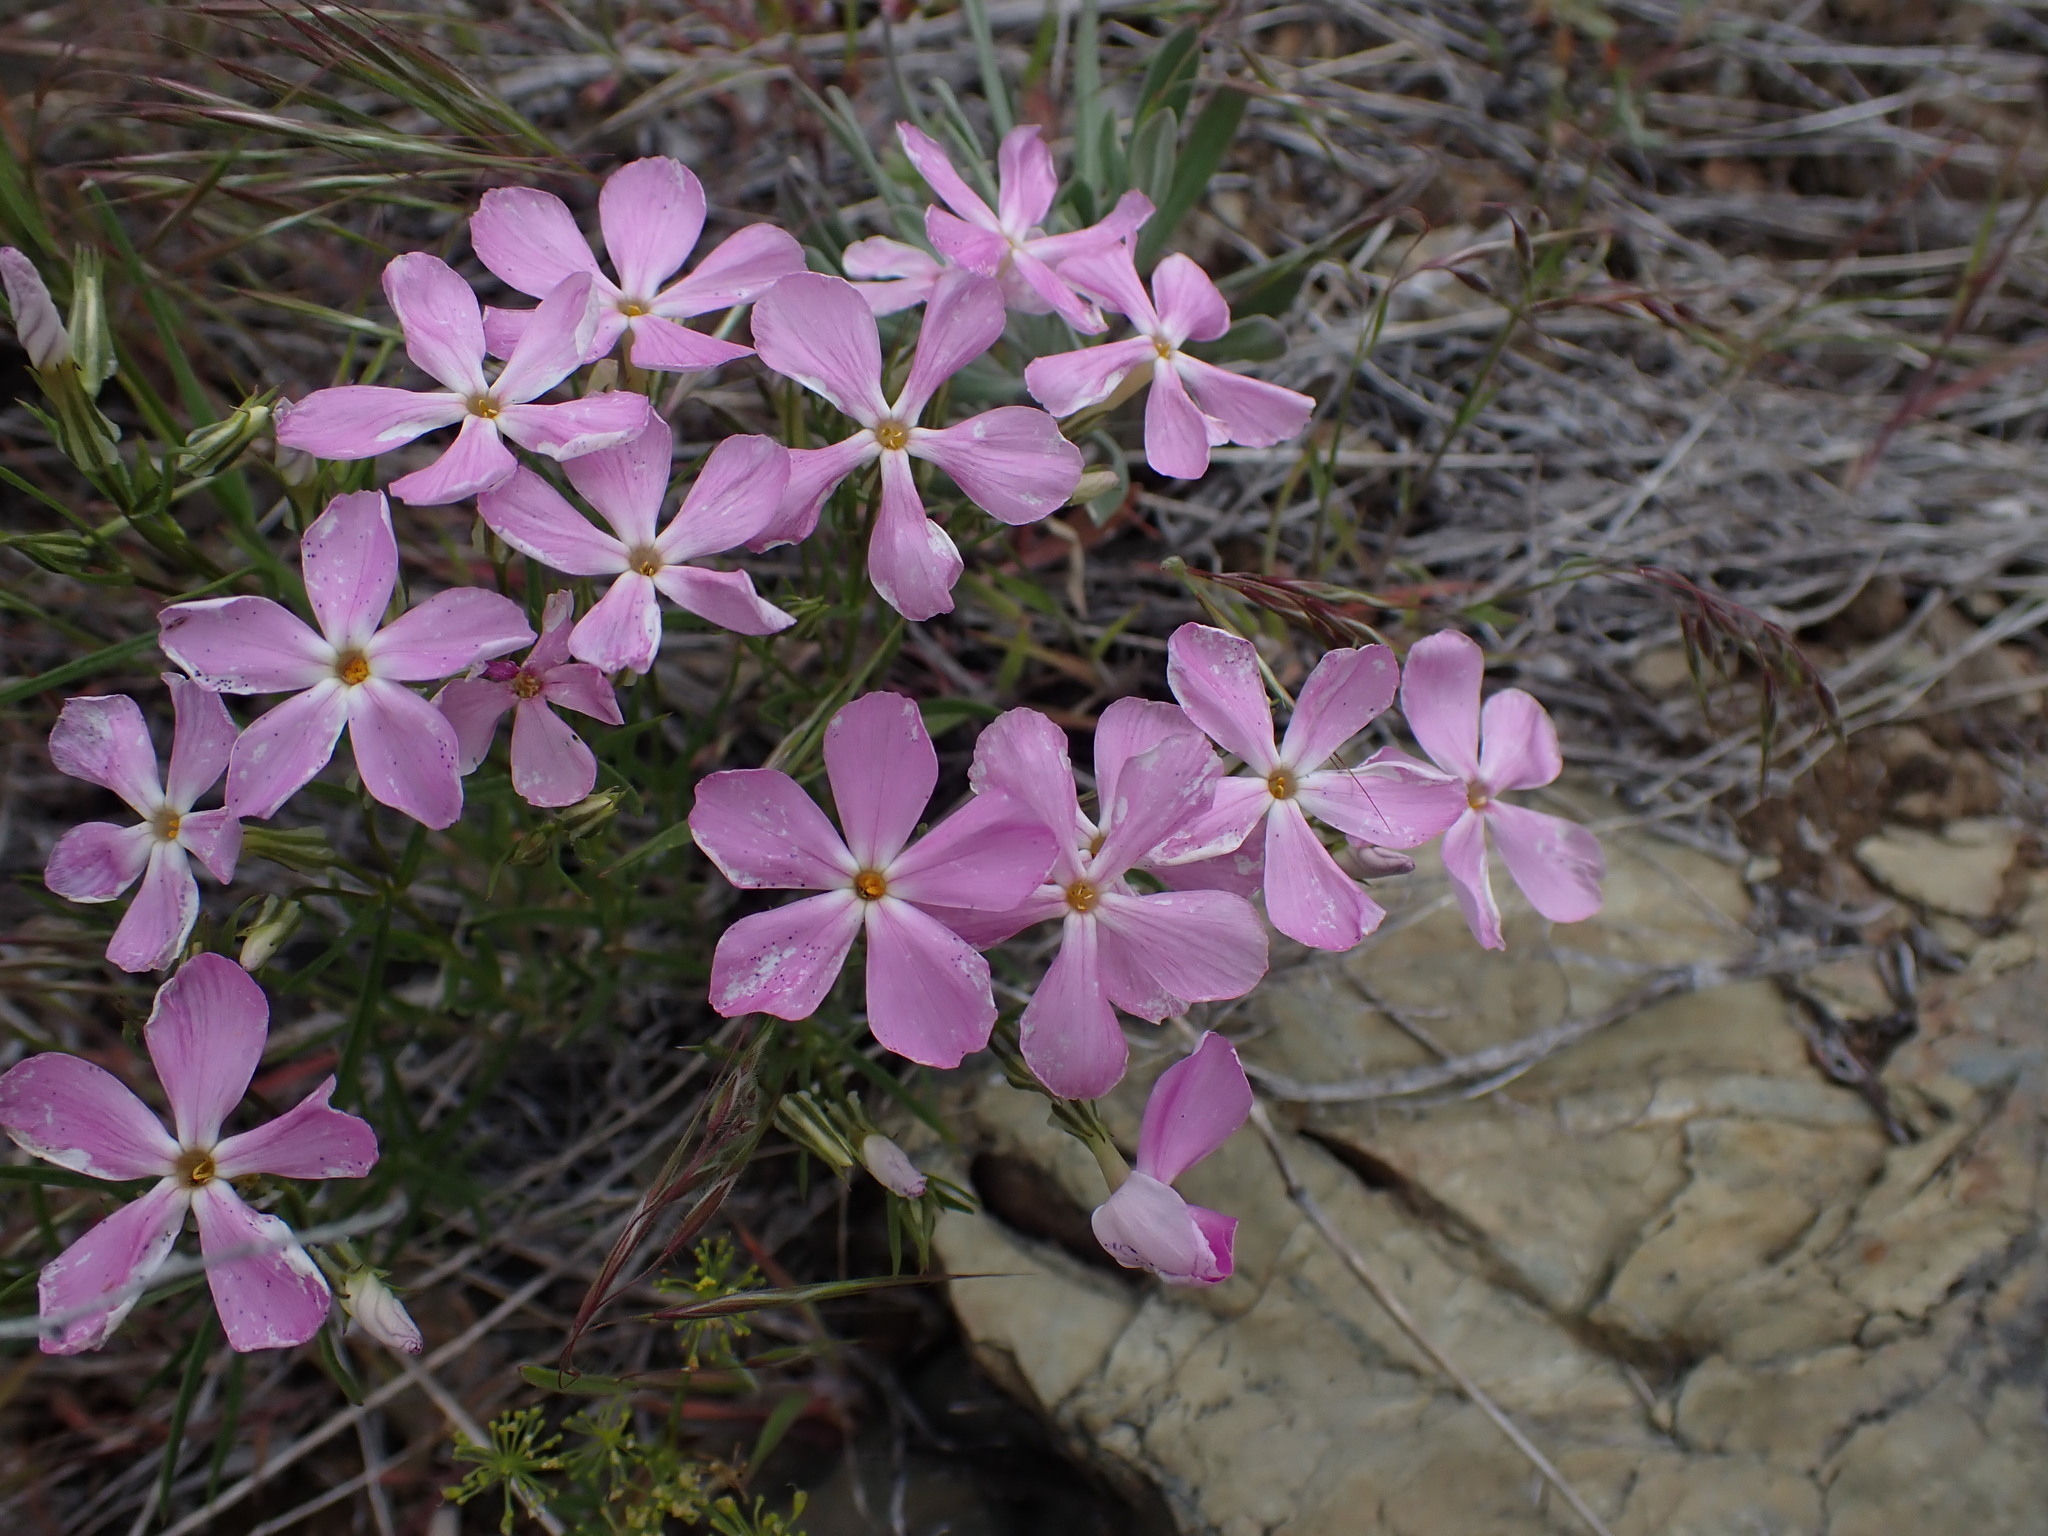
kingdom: Plantae
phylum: Tracheophyta
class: Magnoliopsida
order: Ericales
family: Polemoniaceae
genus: Phlox
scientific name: Phlox longifolia
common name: Longleaf phlox
